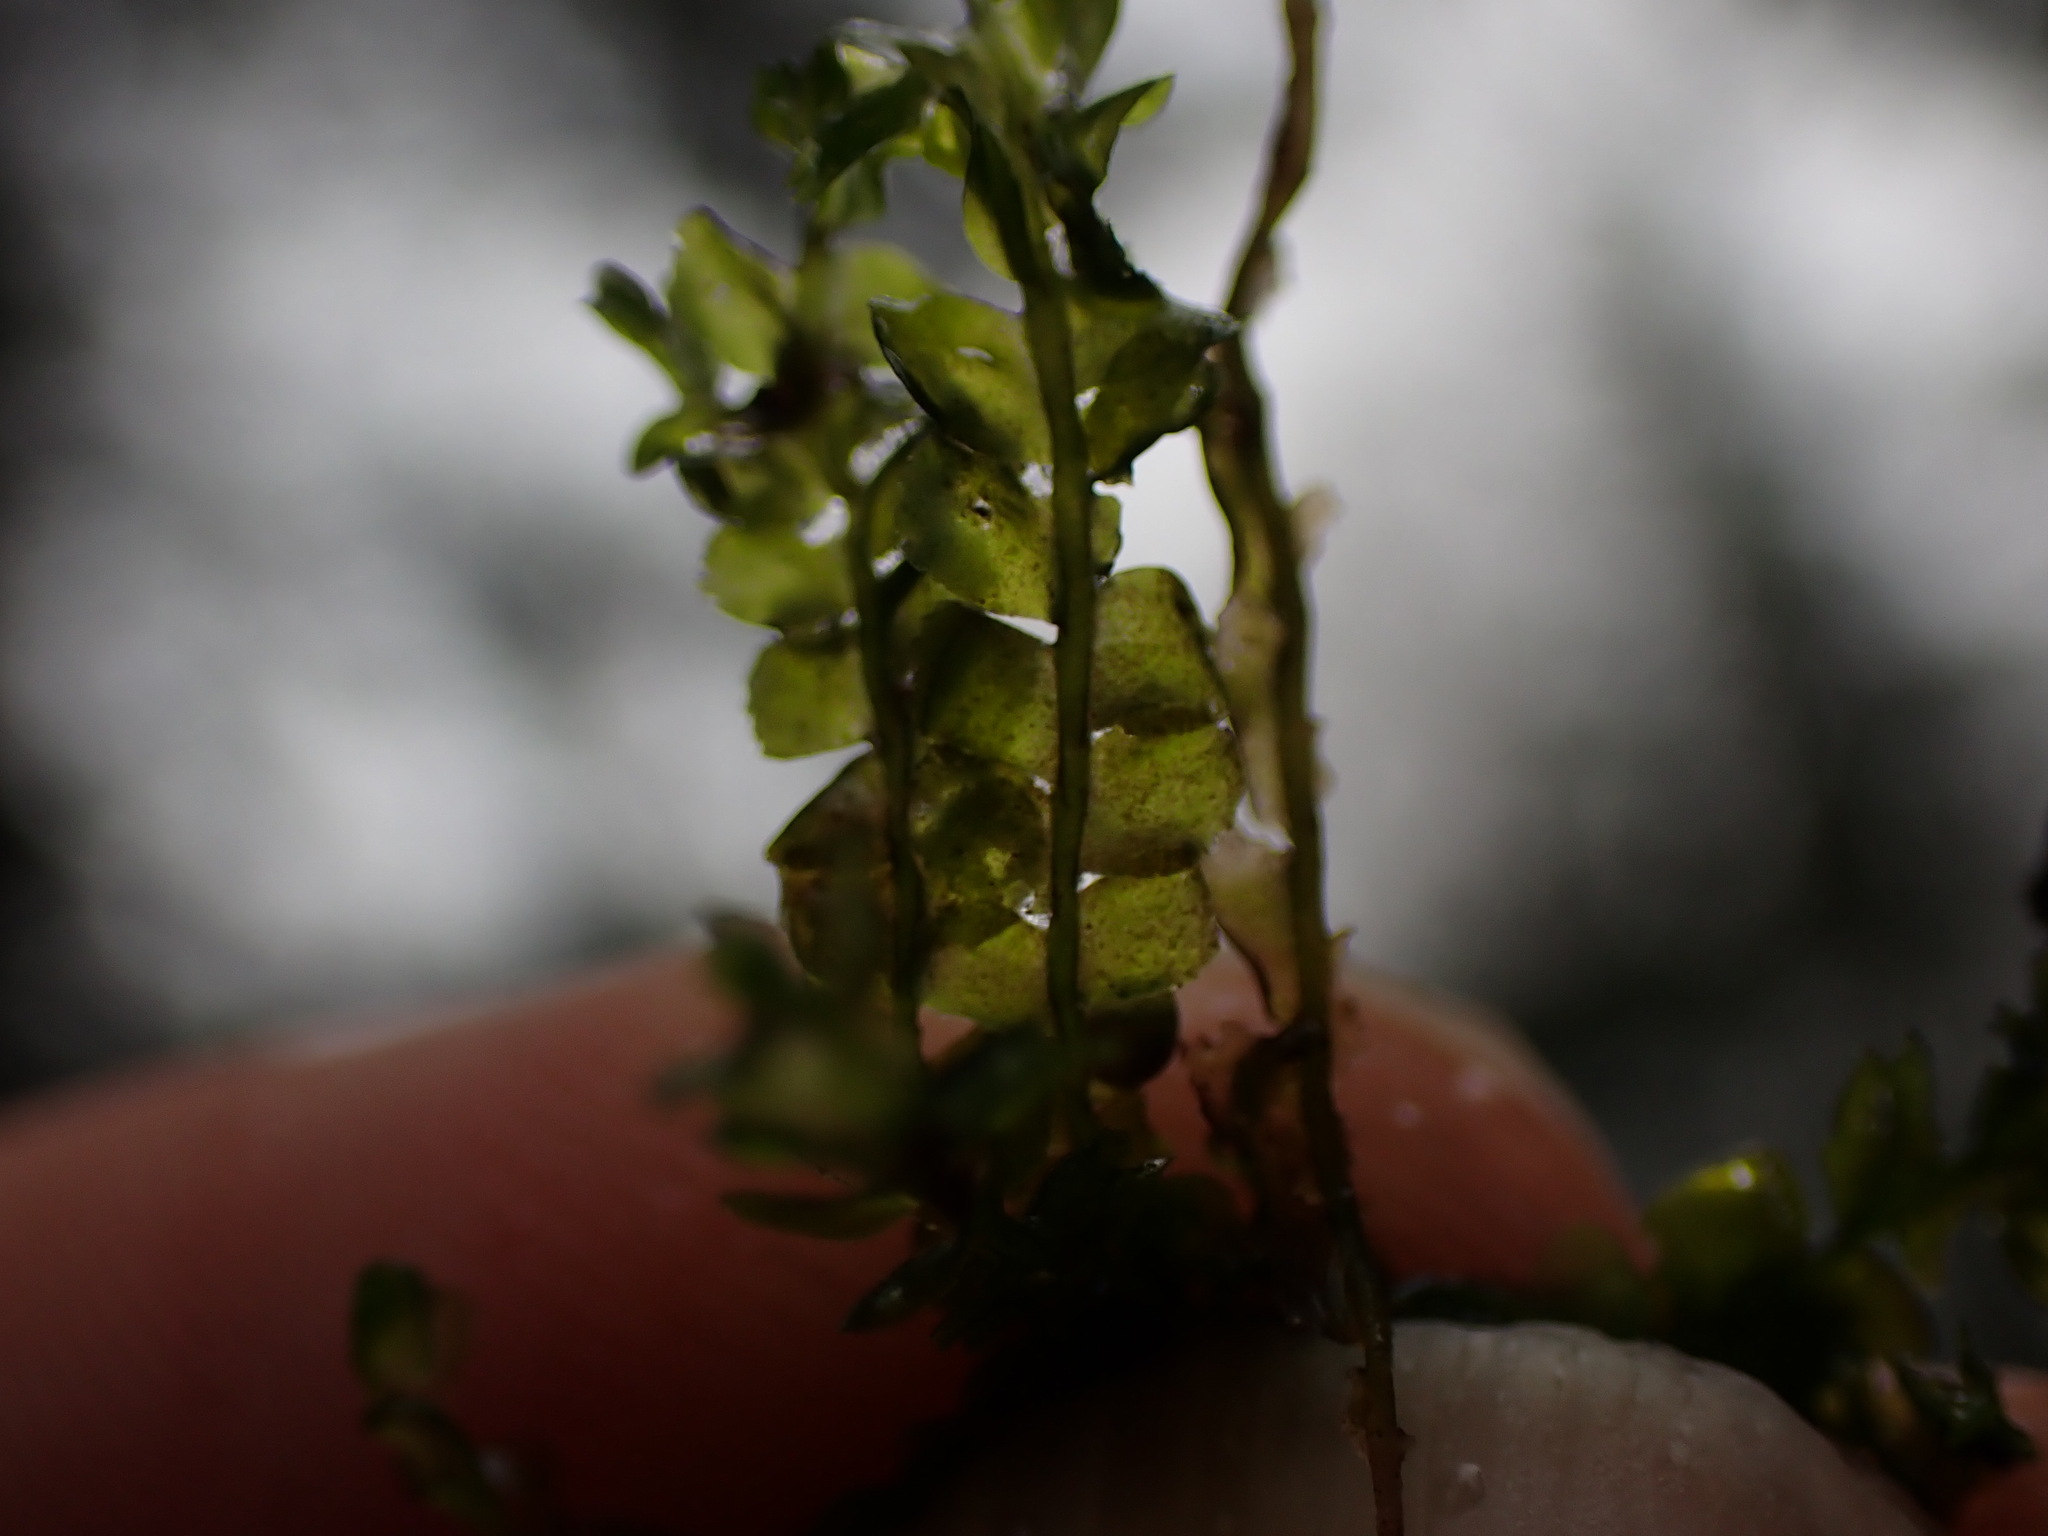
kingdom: Plantae
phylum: Marchantiophyta
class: Jungermanniopsida
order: Jungermanniales
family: Lophocoleaceae
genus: Chiloscyphus
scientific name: Chiloscyphus polyanthos
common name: Square-leaved crestwort
